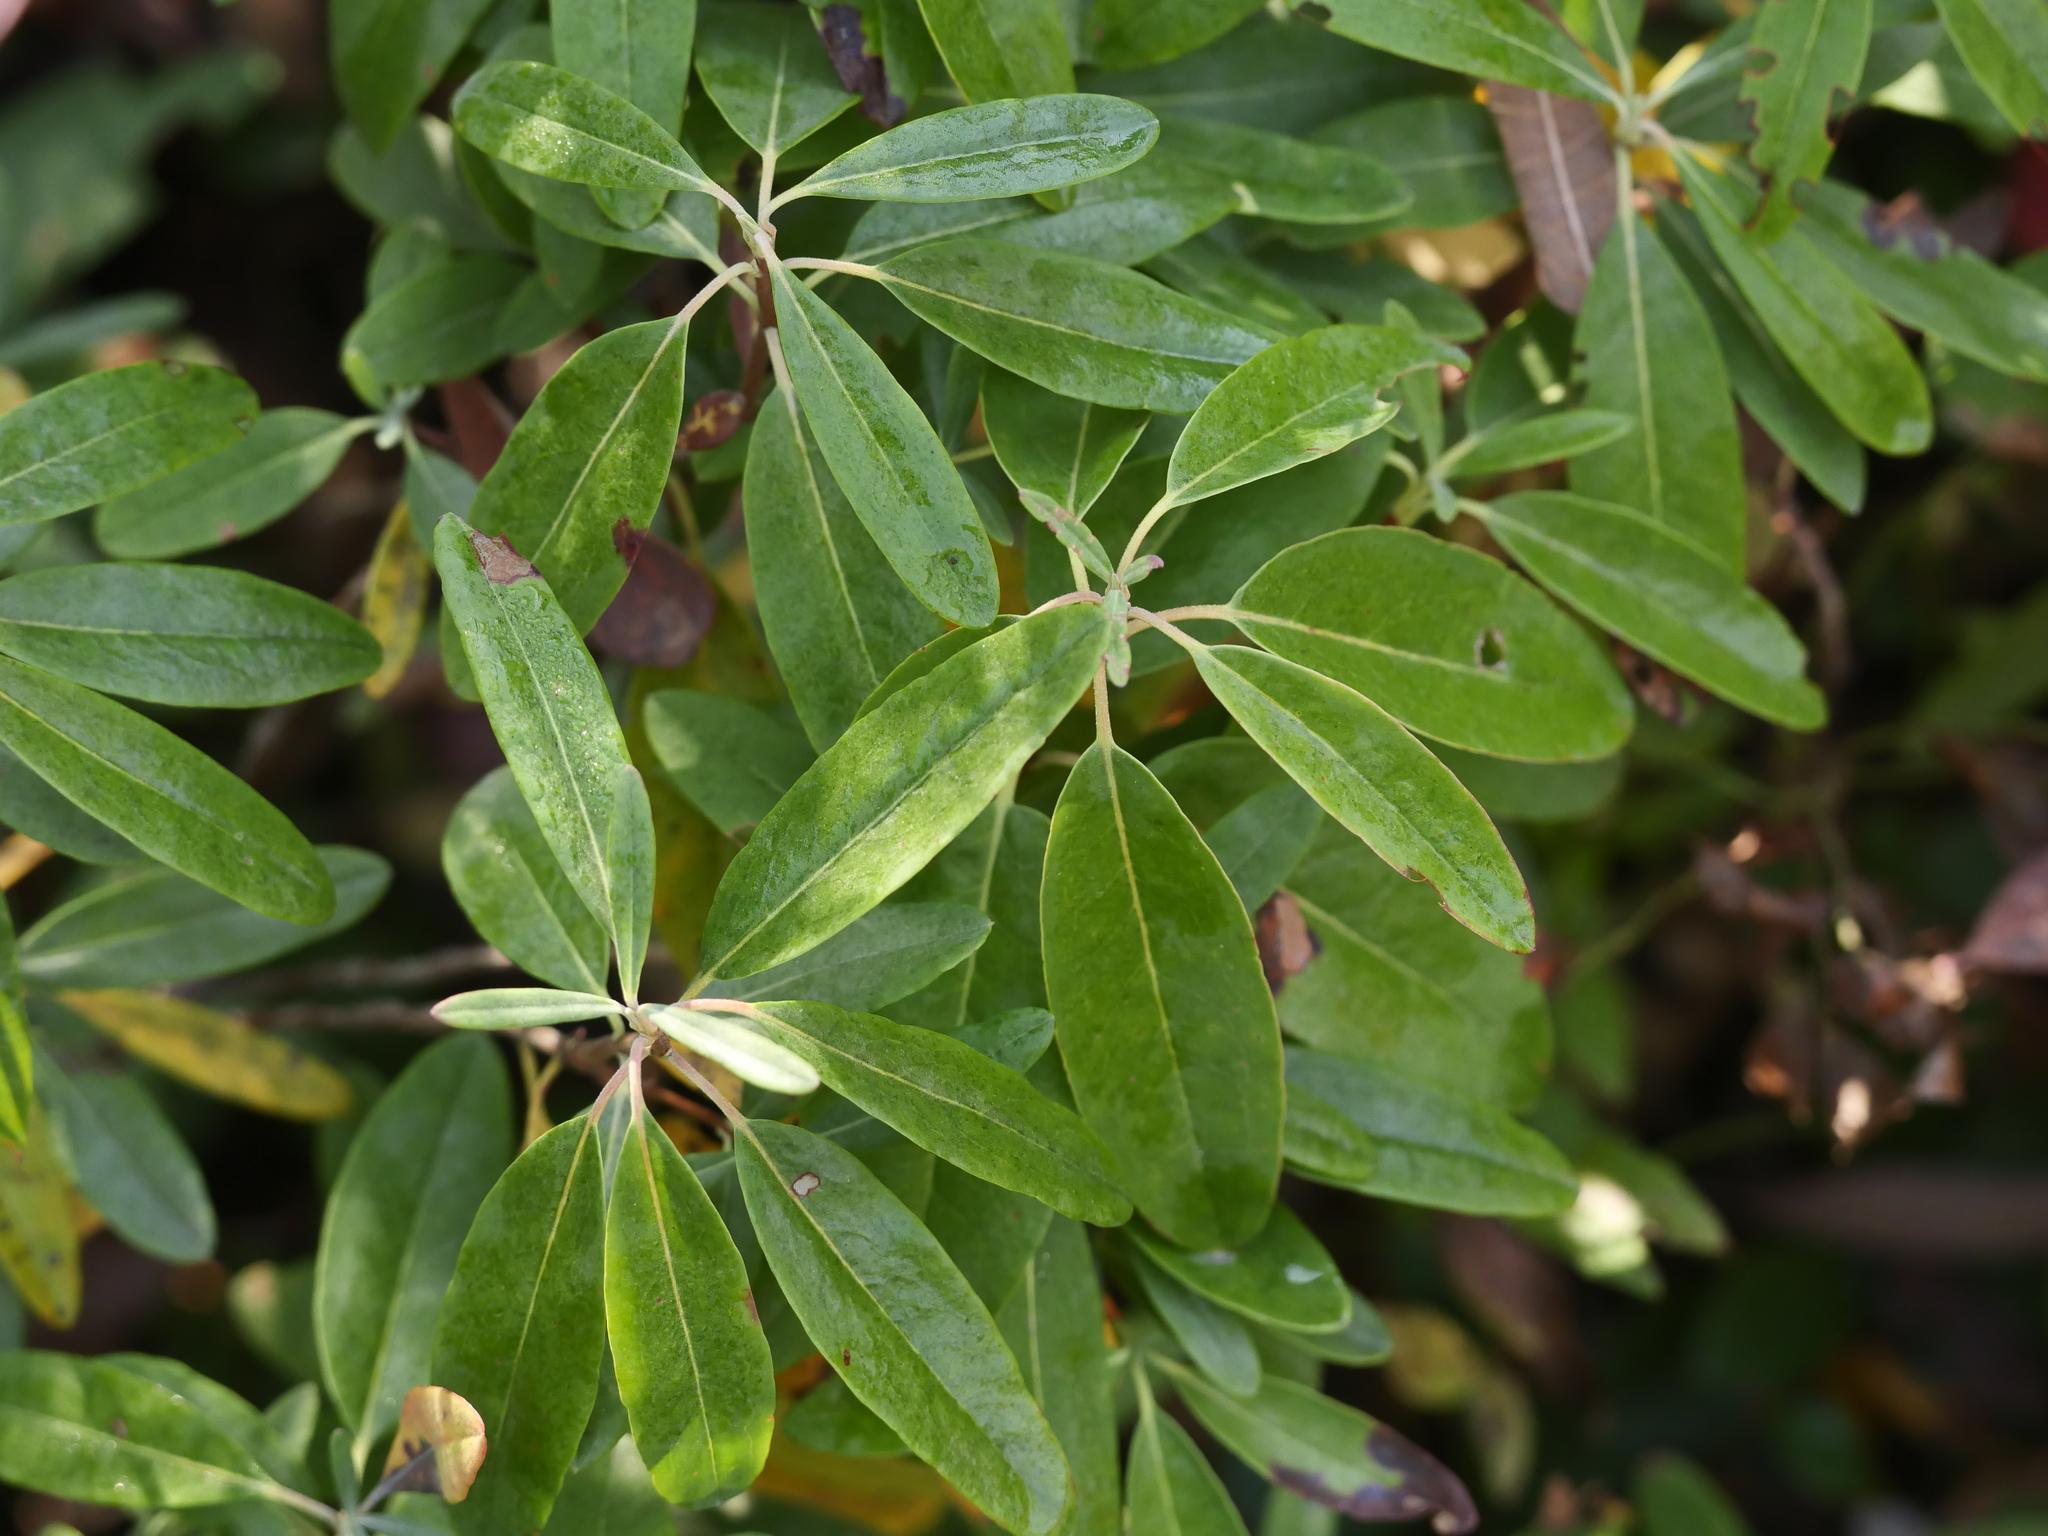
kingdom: Plantae
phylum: Tracheophyta
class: Magnoliopsida
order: Ericales
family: Ericaceae
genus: Kalmia
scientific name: Kalmia angustifolia
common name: Sheep-laurel
